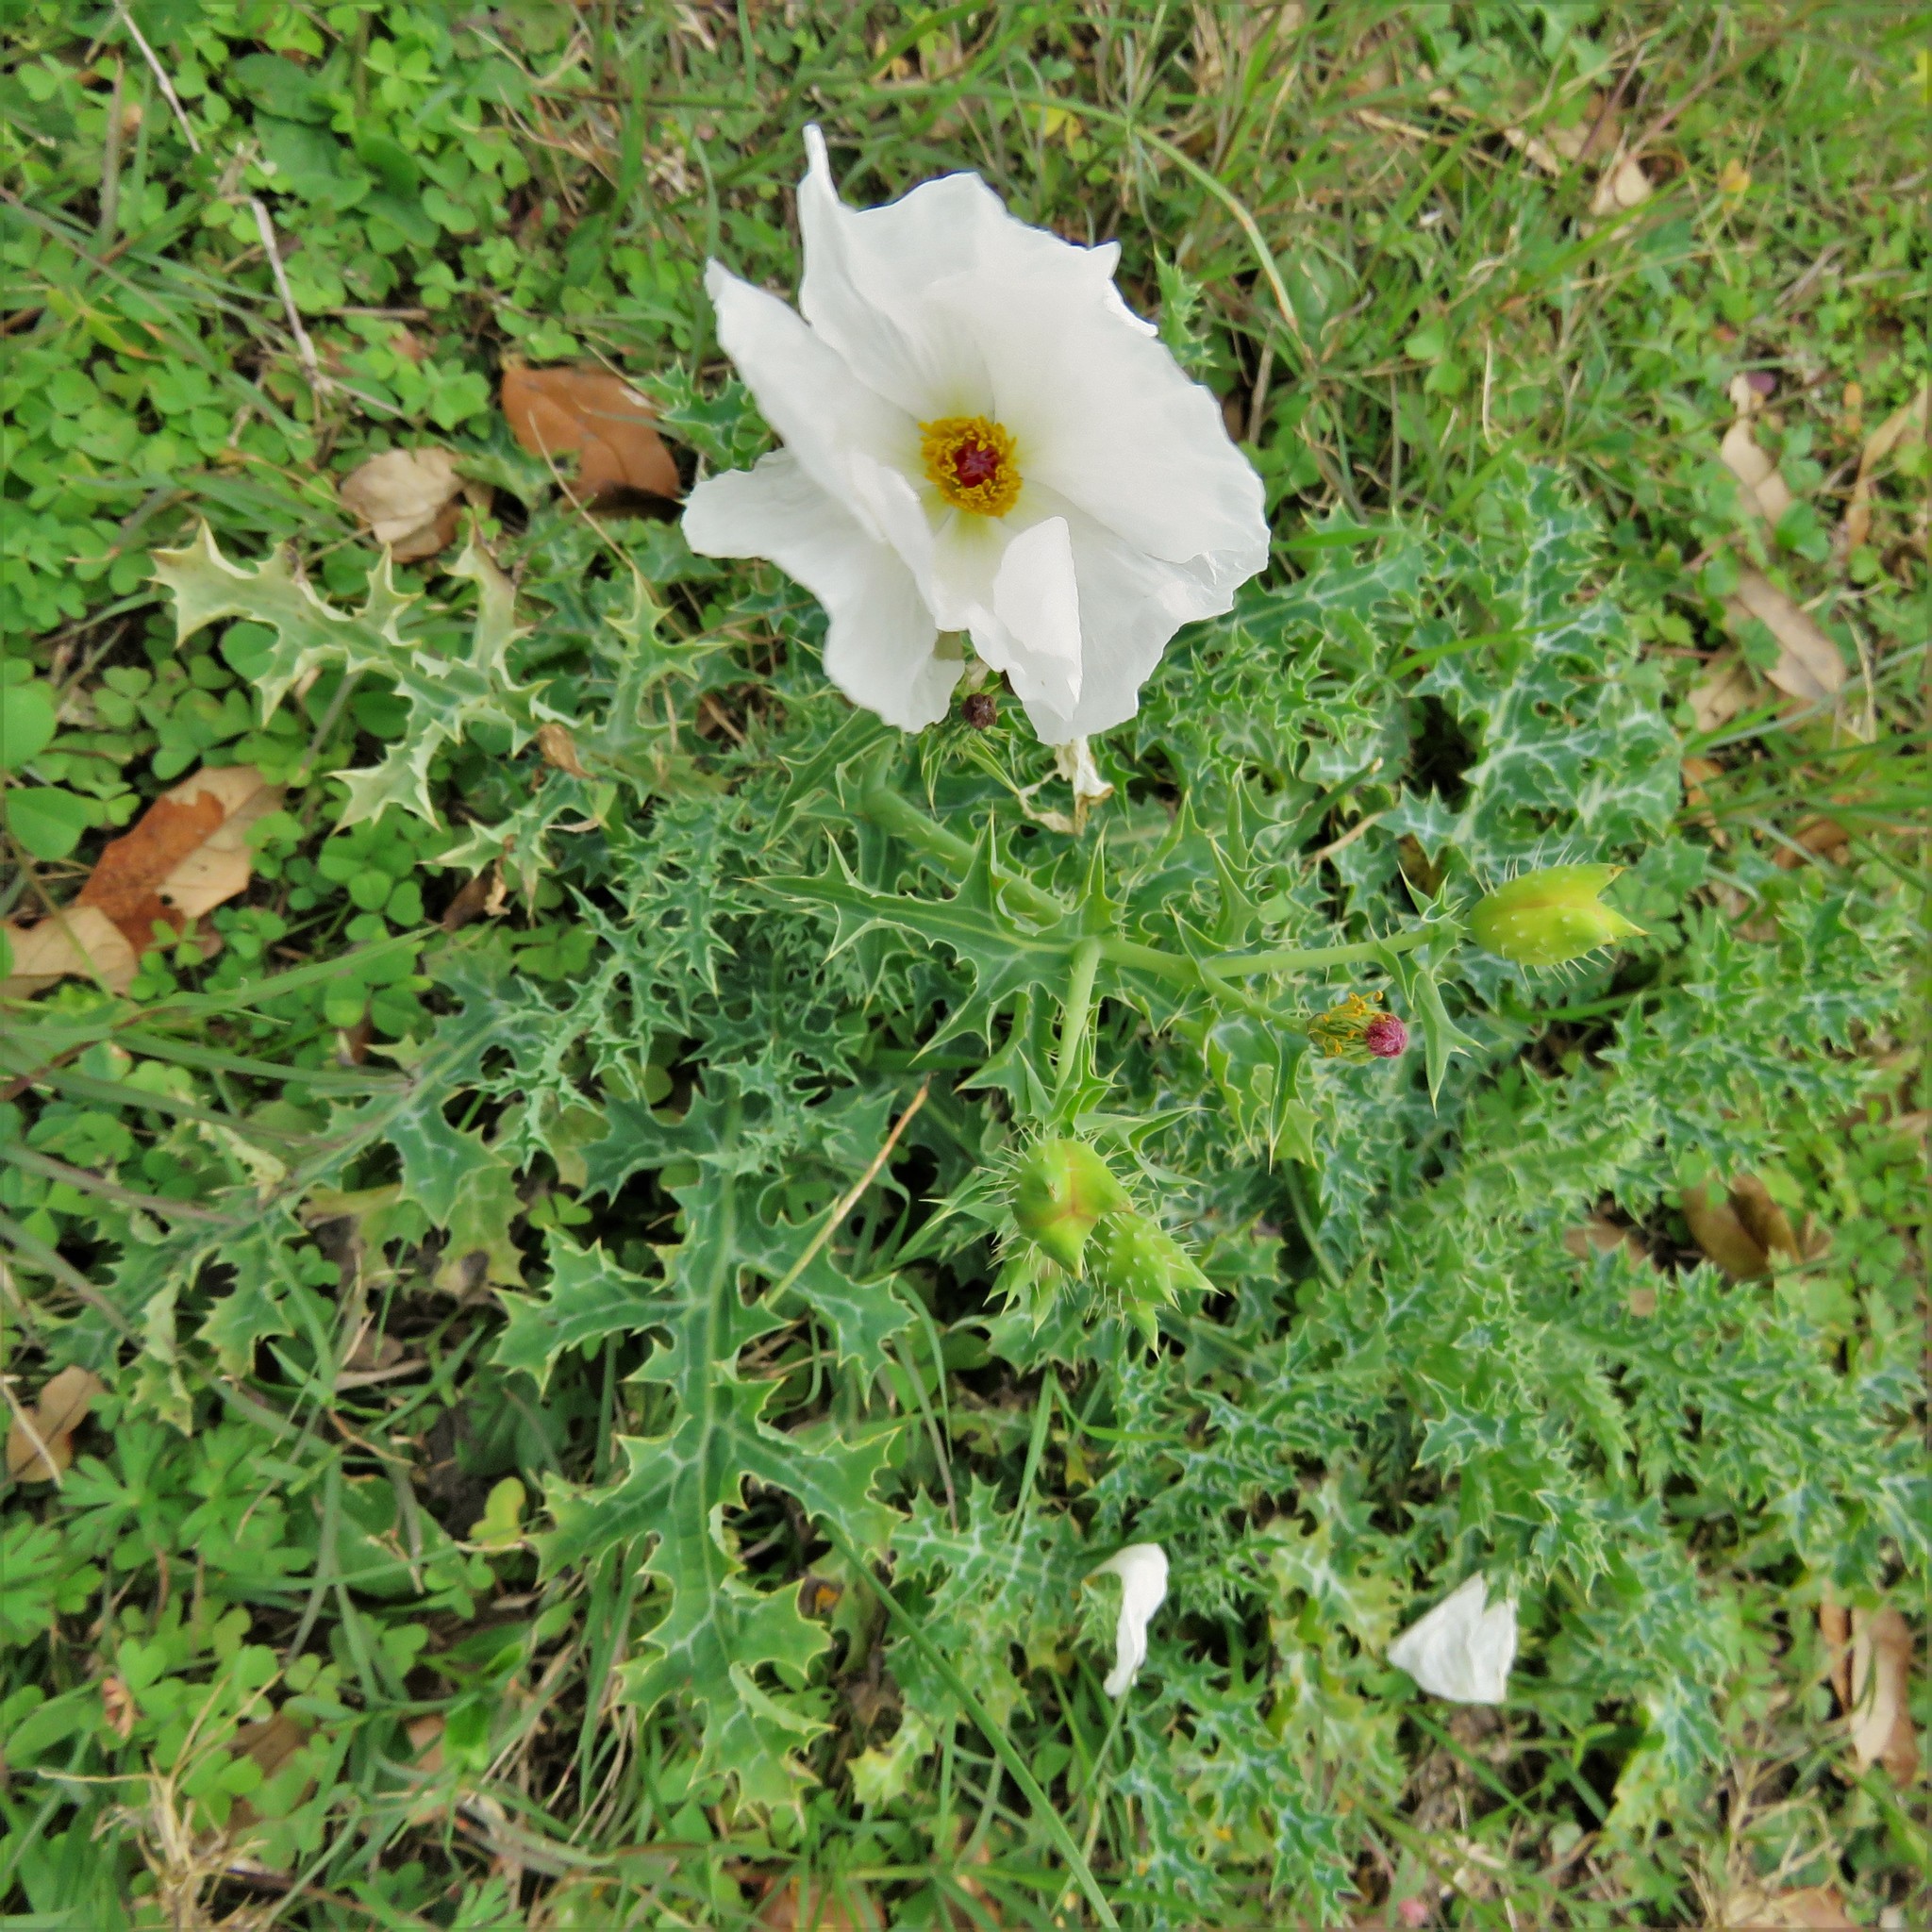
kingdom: Plantae
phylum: Tracheophyta
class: Magnoliopsida
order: Ranunculales
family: Papaveraceae
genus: Argemone
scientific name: Argemone albiflora
